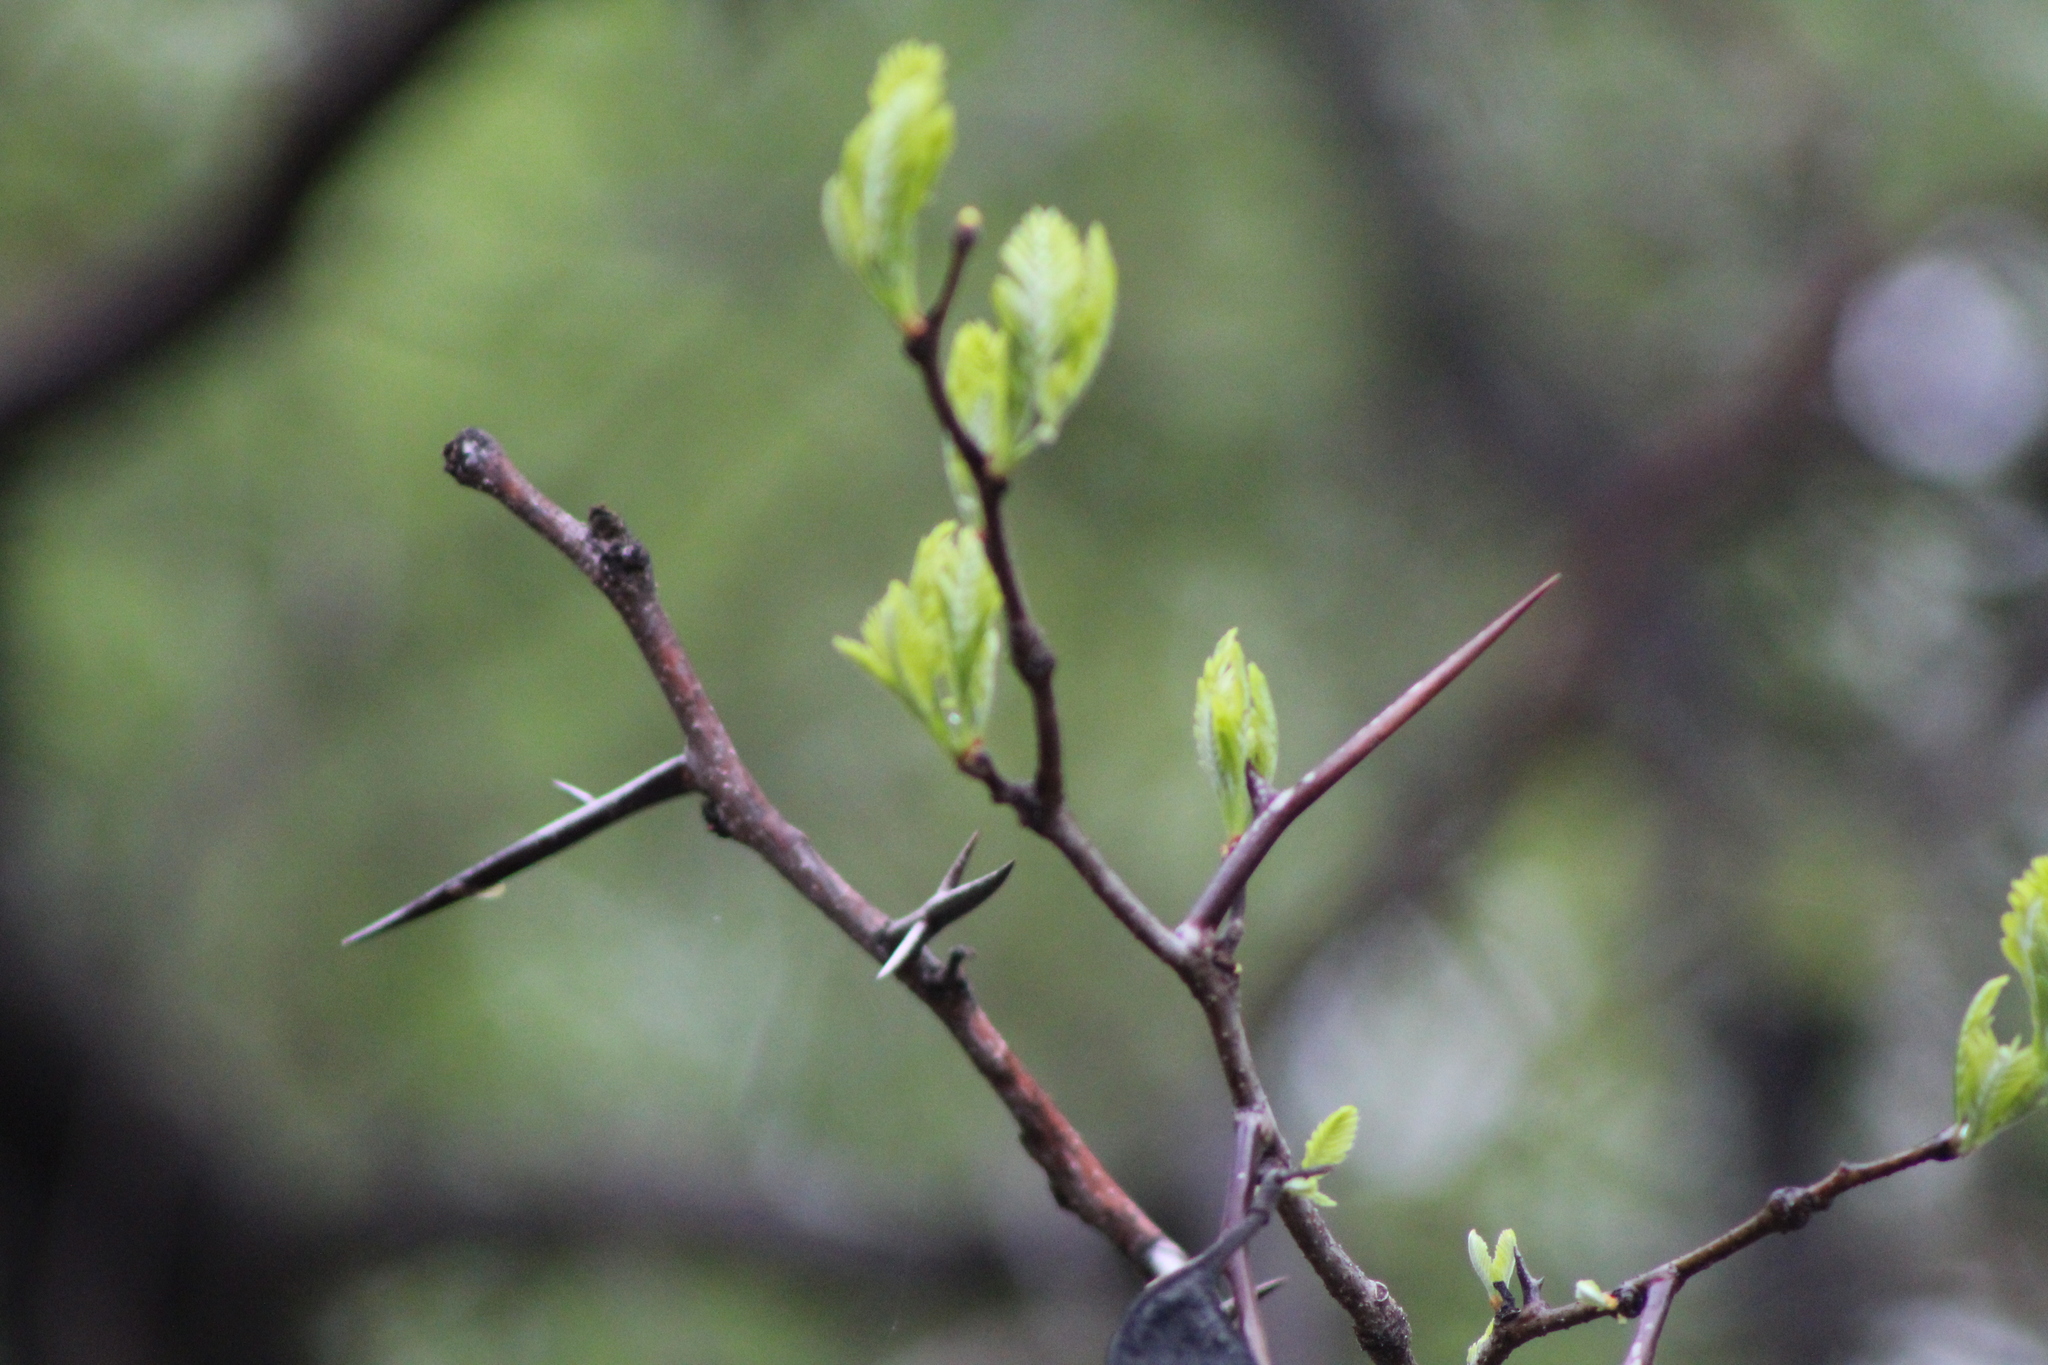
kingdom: Plantae
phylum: Tracheophyta
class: Magnoliopsida
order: Fabales
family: Fabaceae
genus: Gleditsia
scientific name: Gleditsia triacanthos
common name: Common honeylocust
